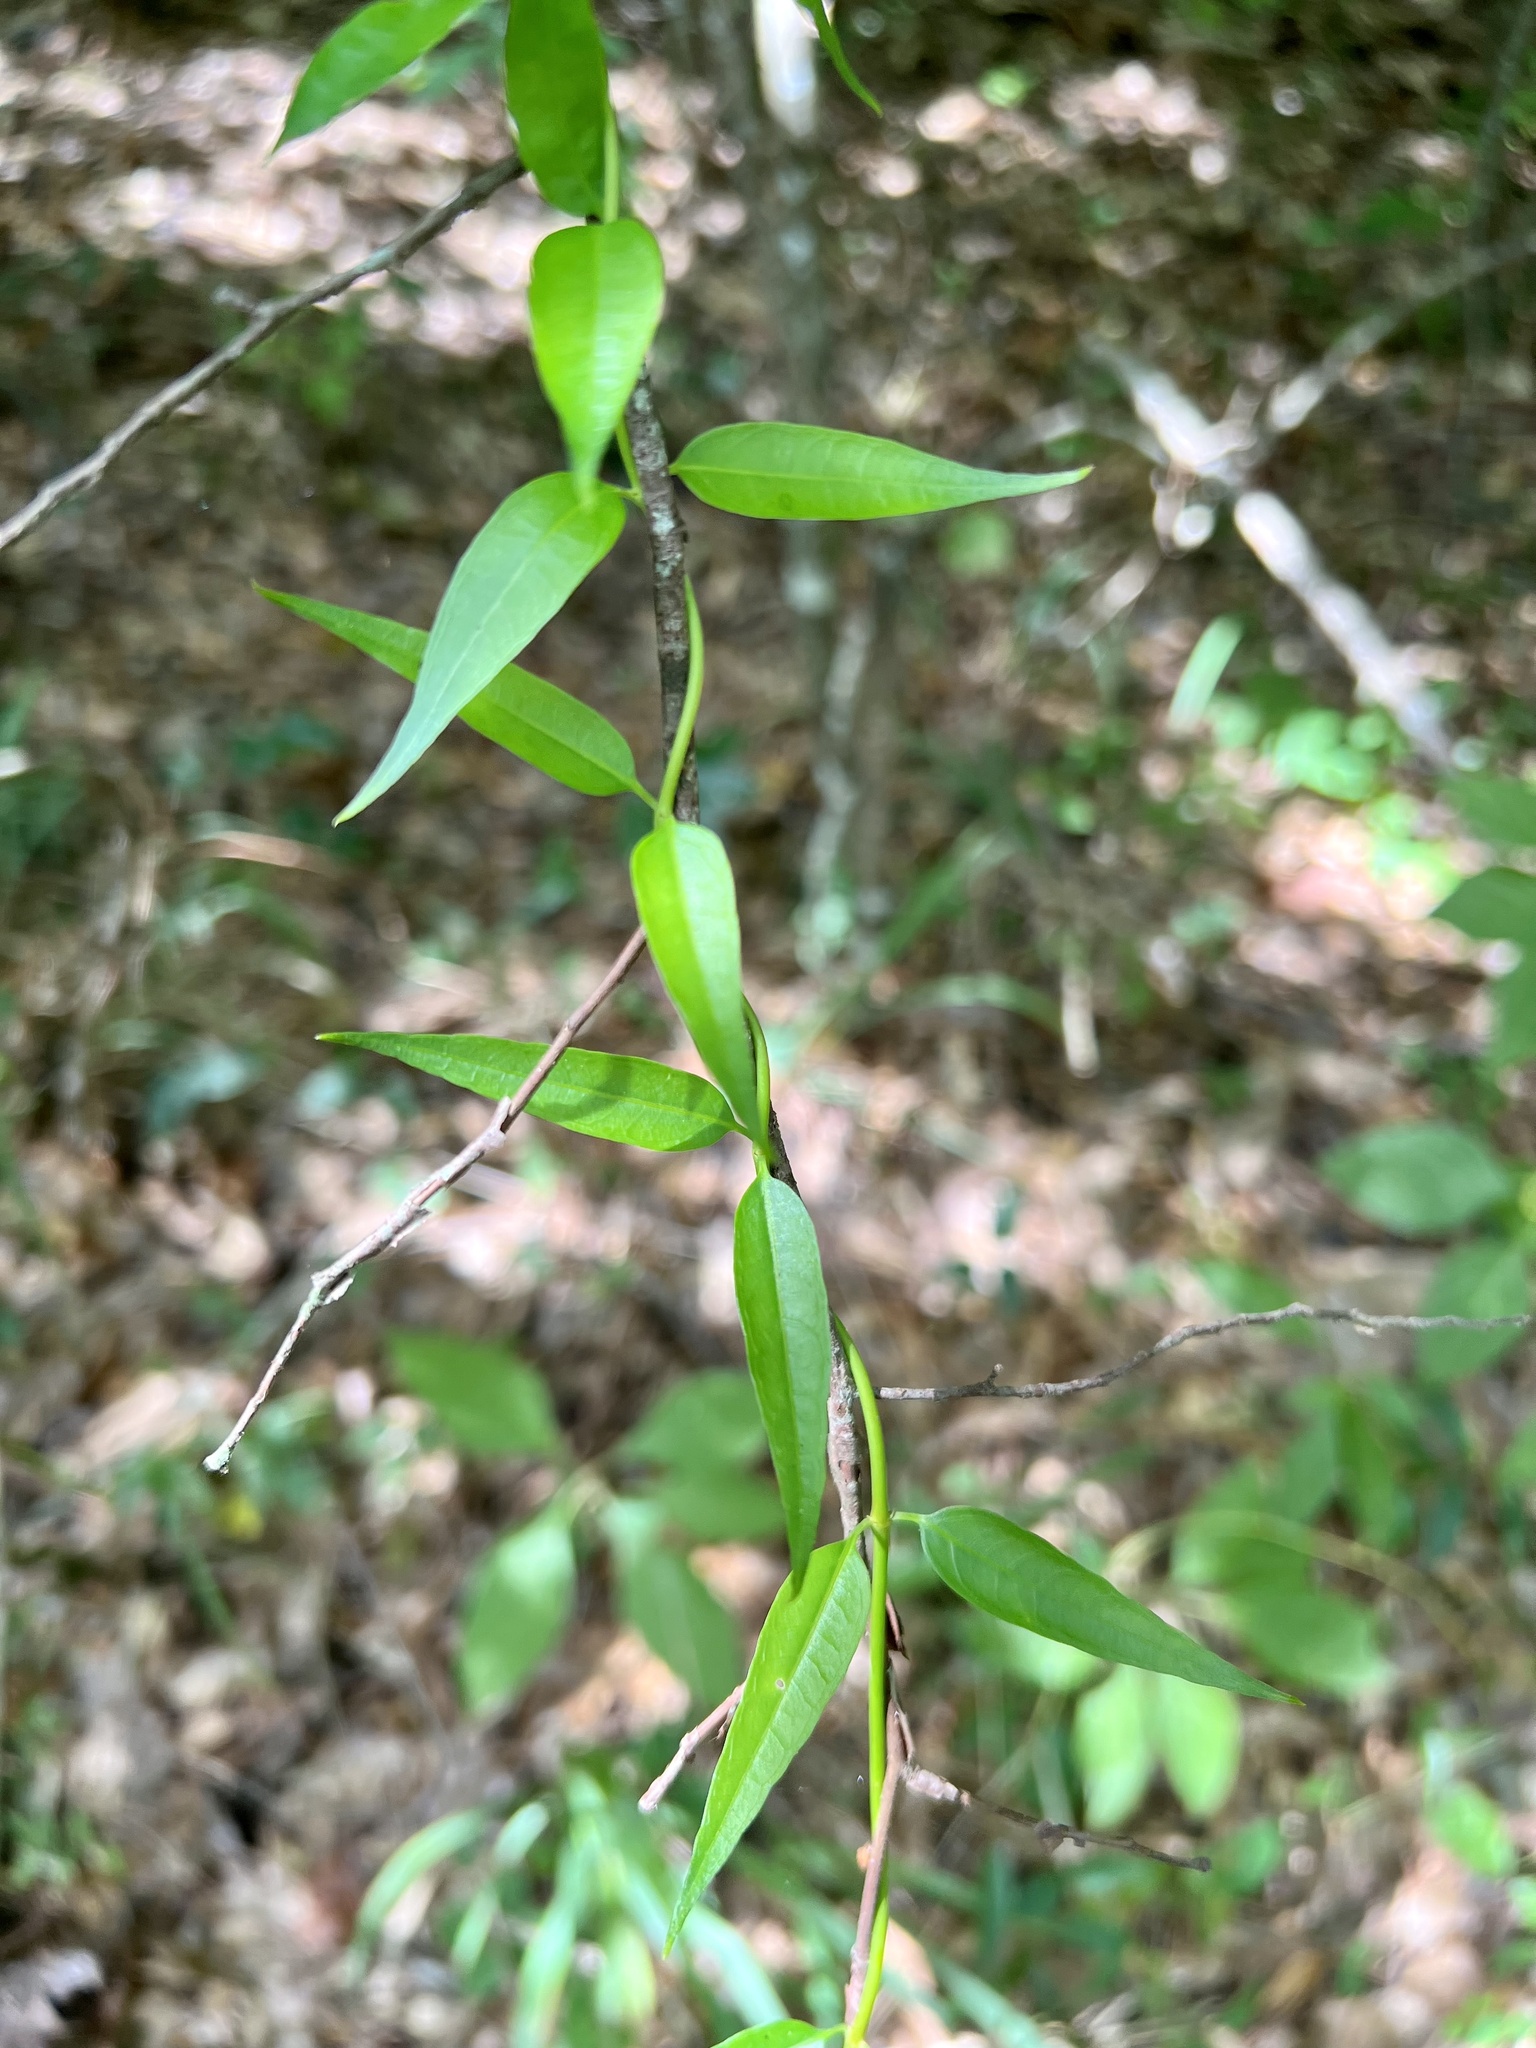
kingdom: Plantae
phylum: Tracheophyta
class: Magnoliopsida
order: Gentianales
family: Gelsemiaceae
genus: Gelsemium
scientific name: Gelsemium sempervirens
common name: Carolina-jasmine
